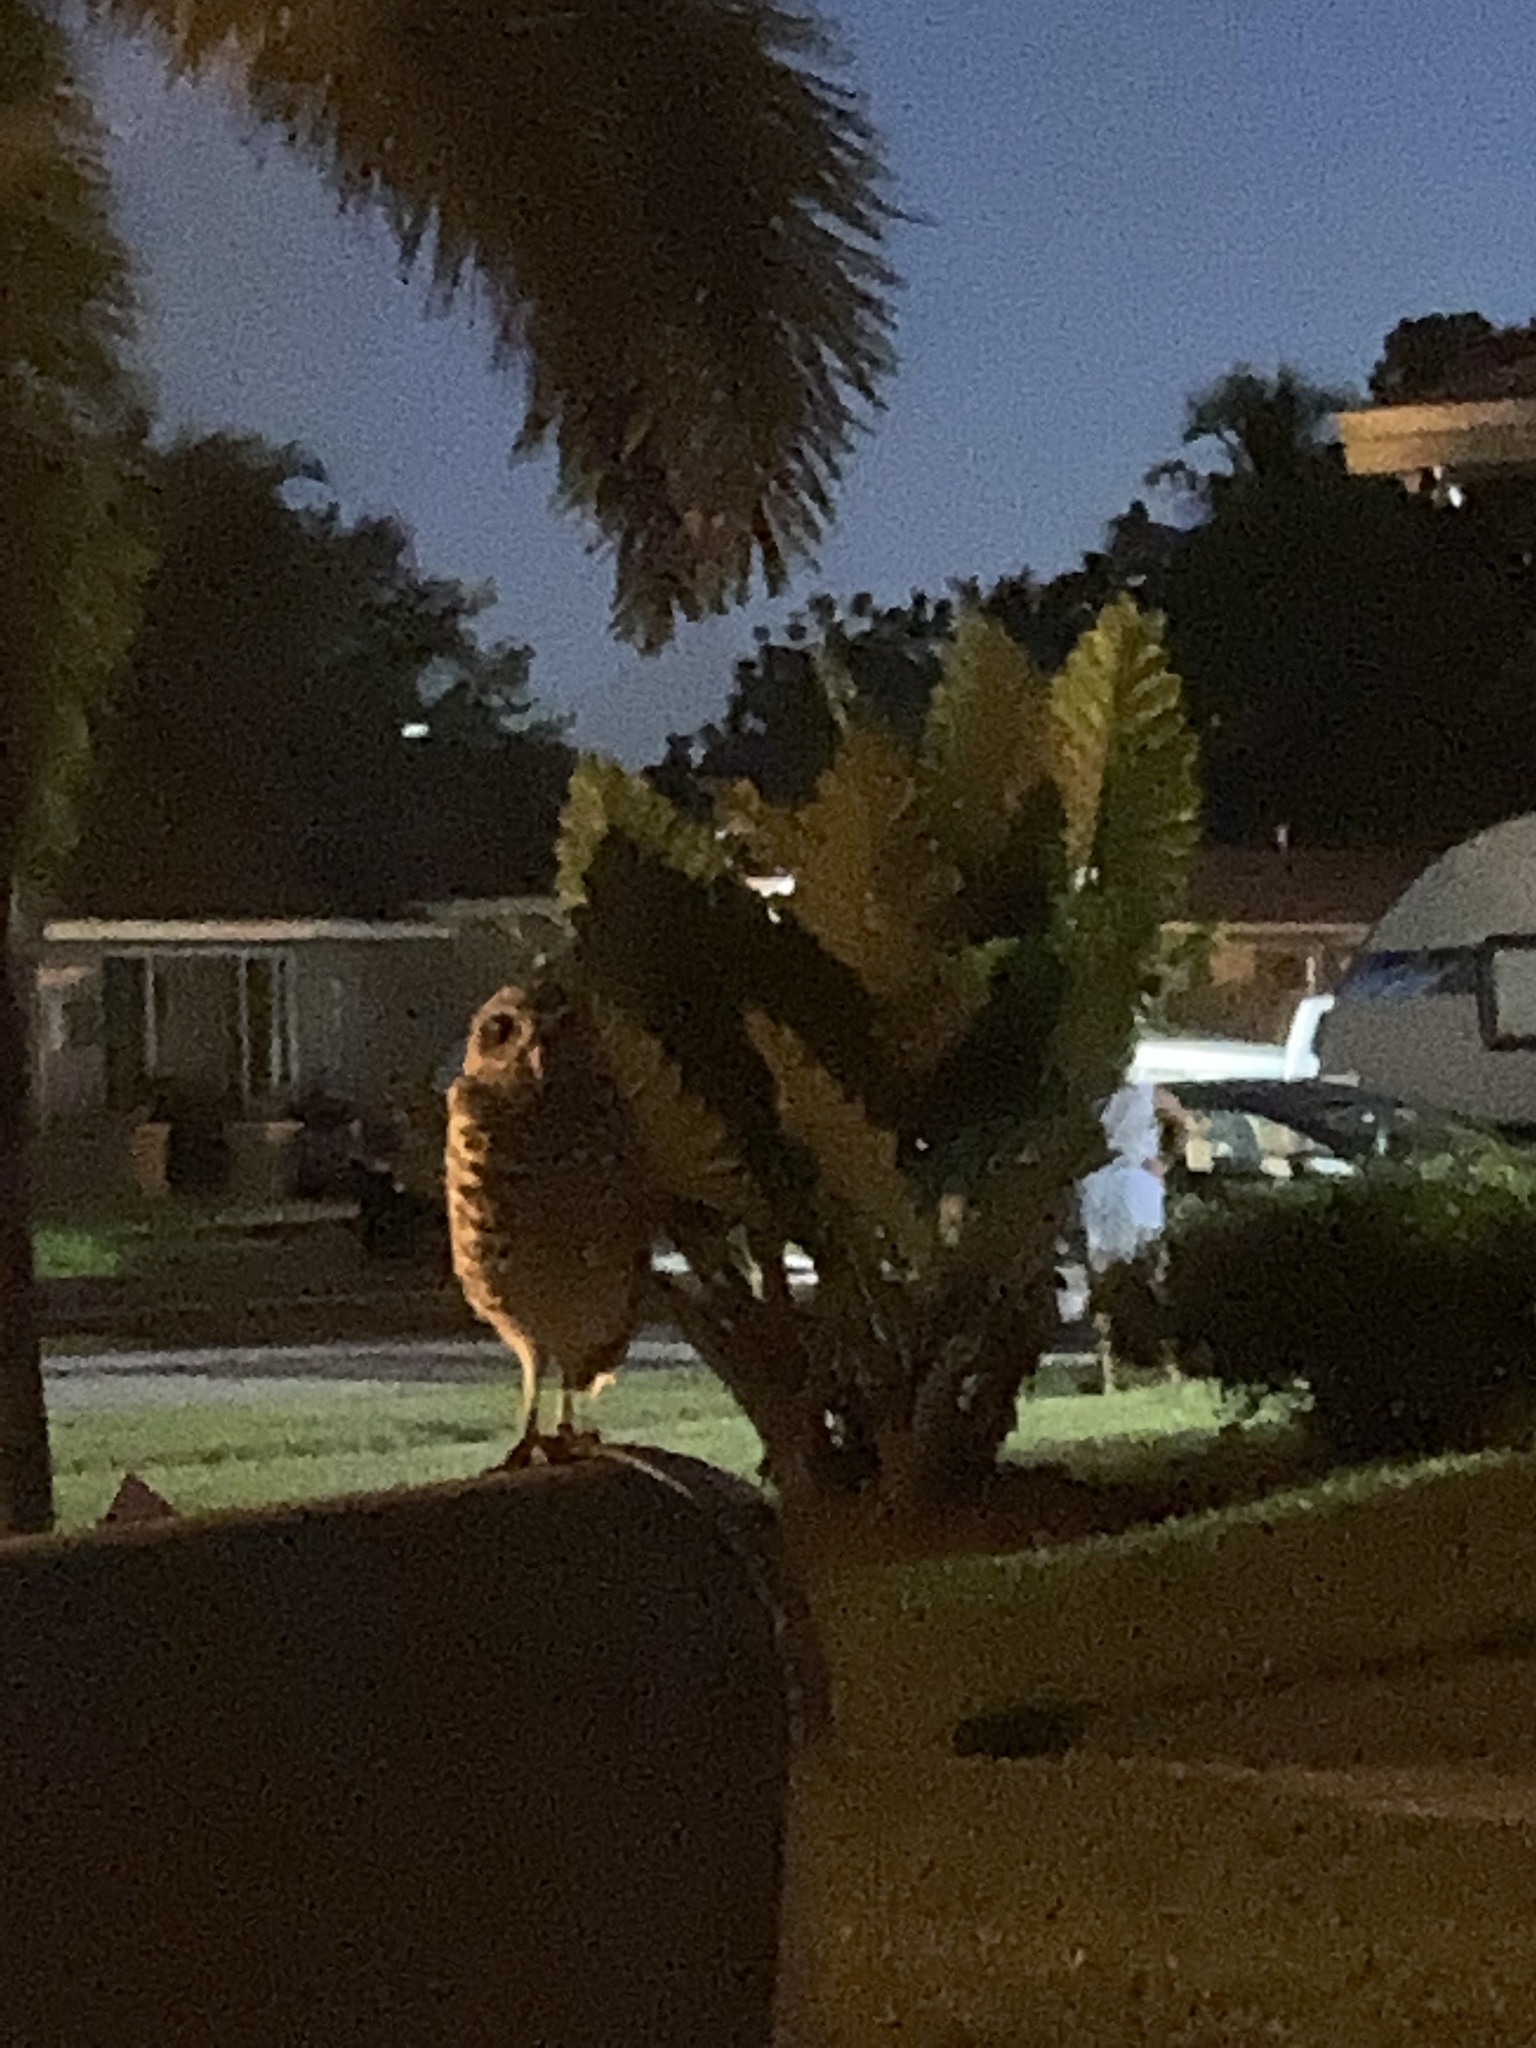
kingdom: Animalia
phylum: Chordata
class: Aves
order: Strigiformes
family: Strigidae
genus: Athene
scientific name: Athene cunicularia
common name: Burrowing owl
